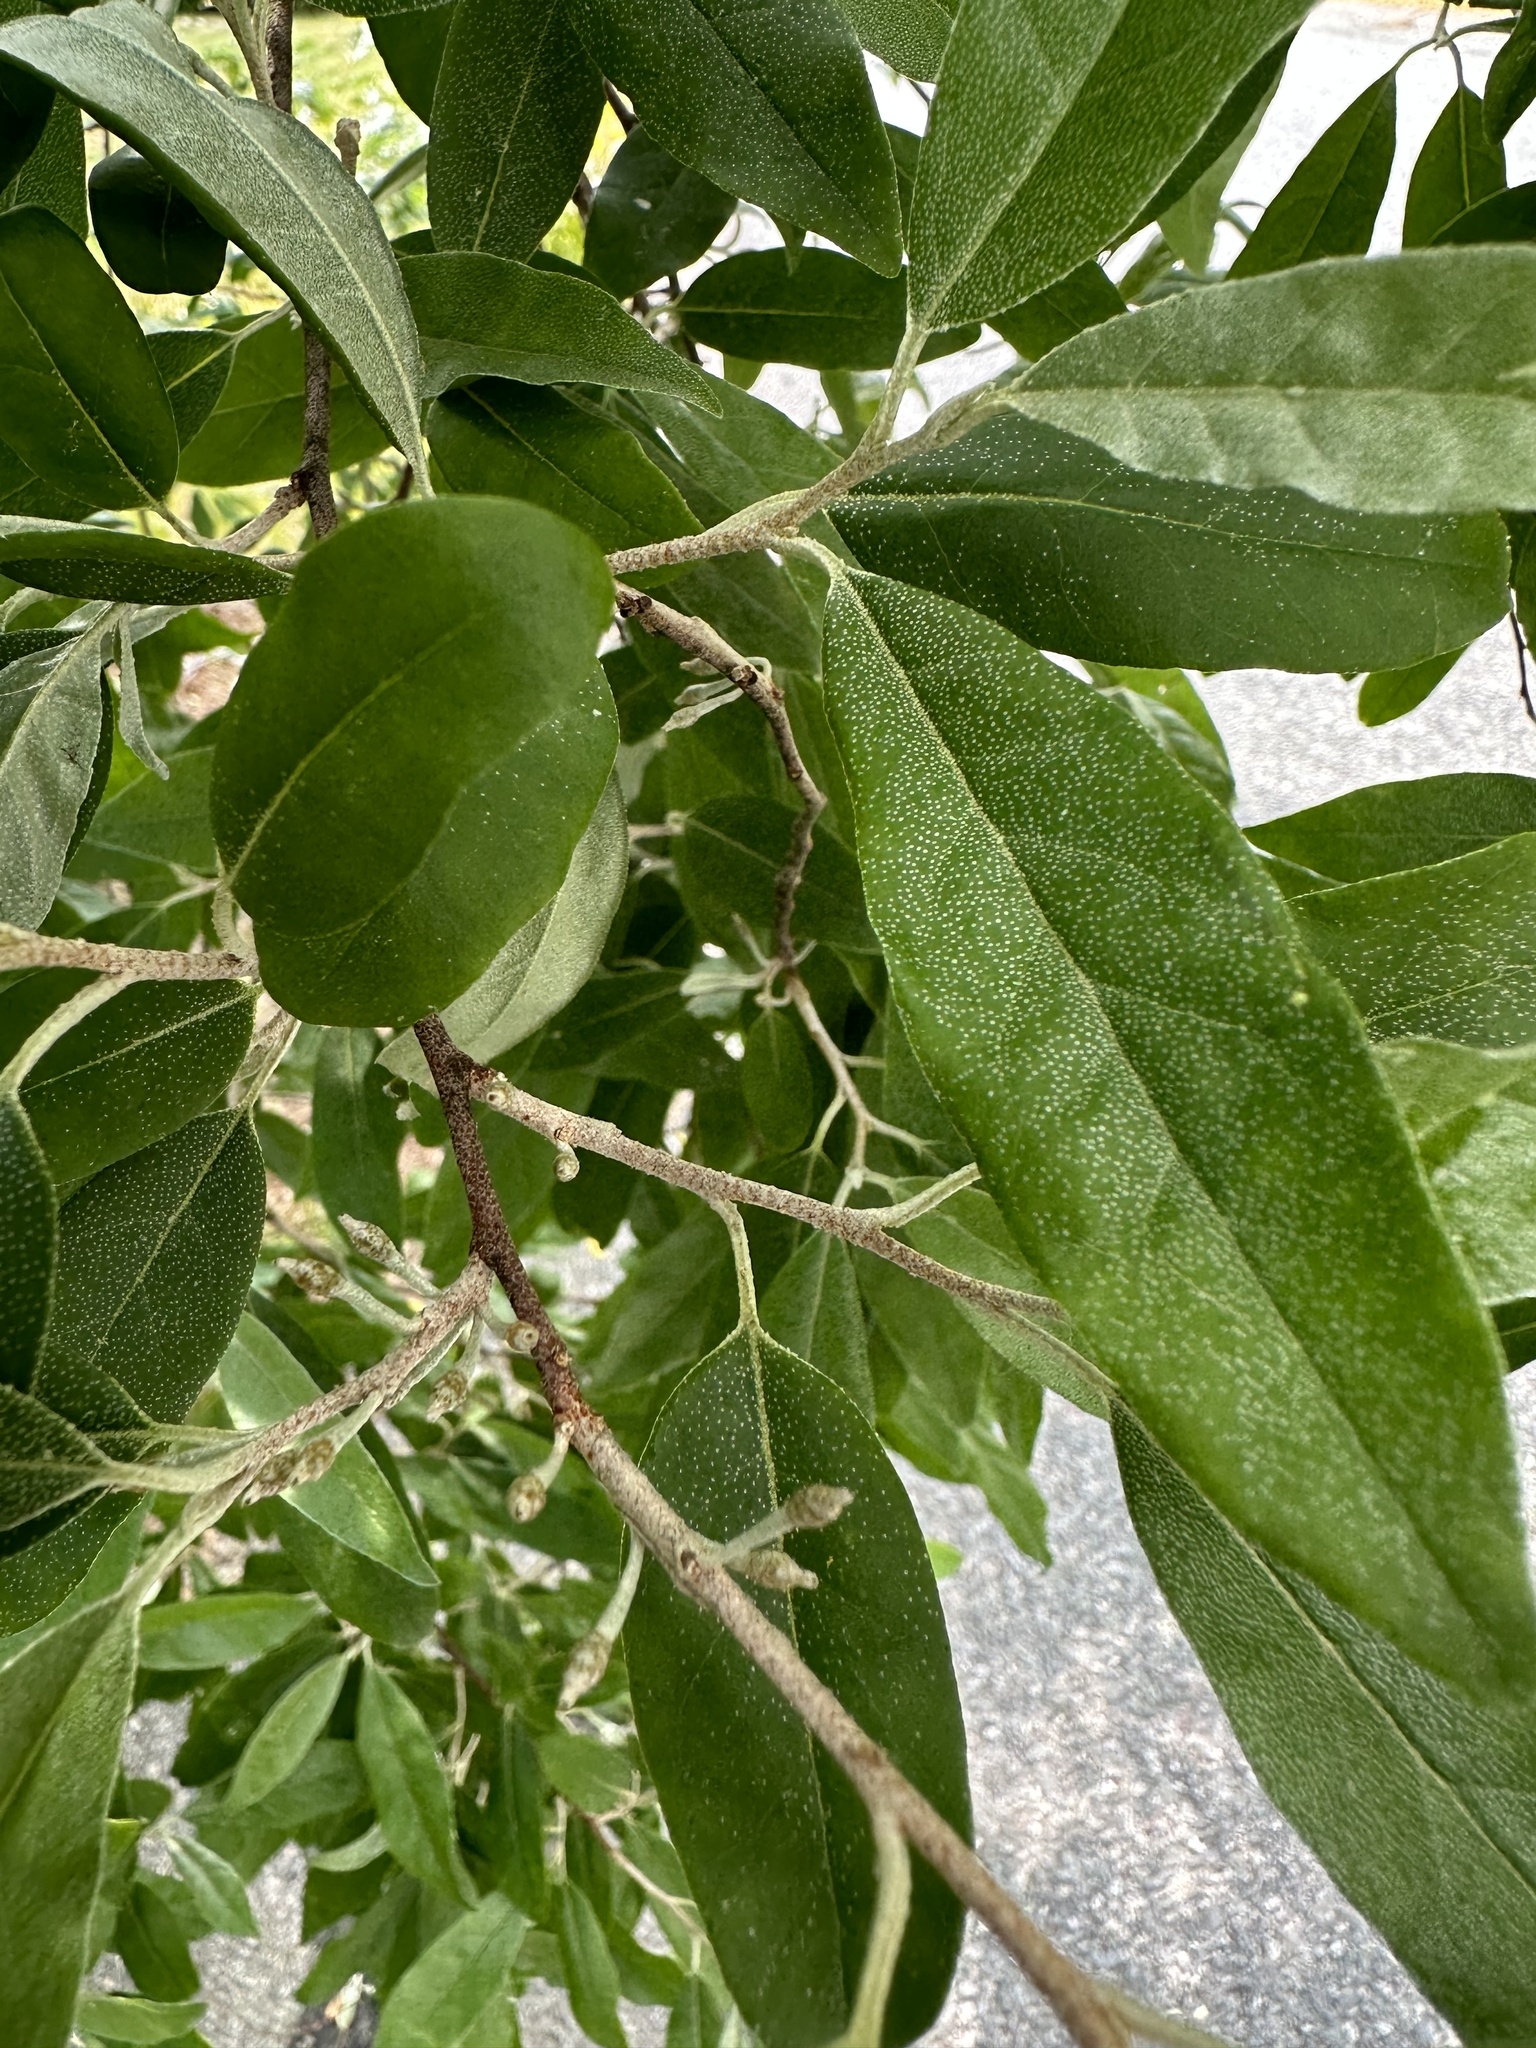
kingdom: Plantae
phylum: Tracheophyta
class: Magnoliopsida
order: Rosales
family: Elaeagnaceae
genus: Elaeagnus
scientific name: Elaeagnus umbellata
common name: Autumn olive
